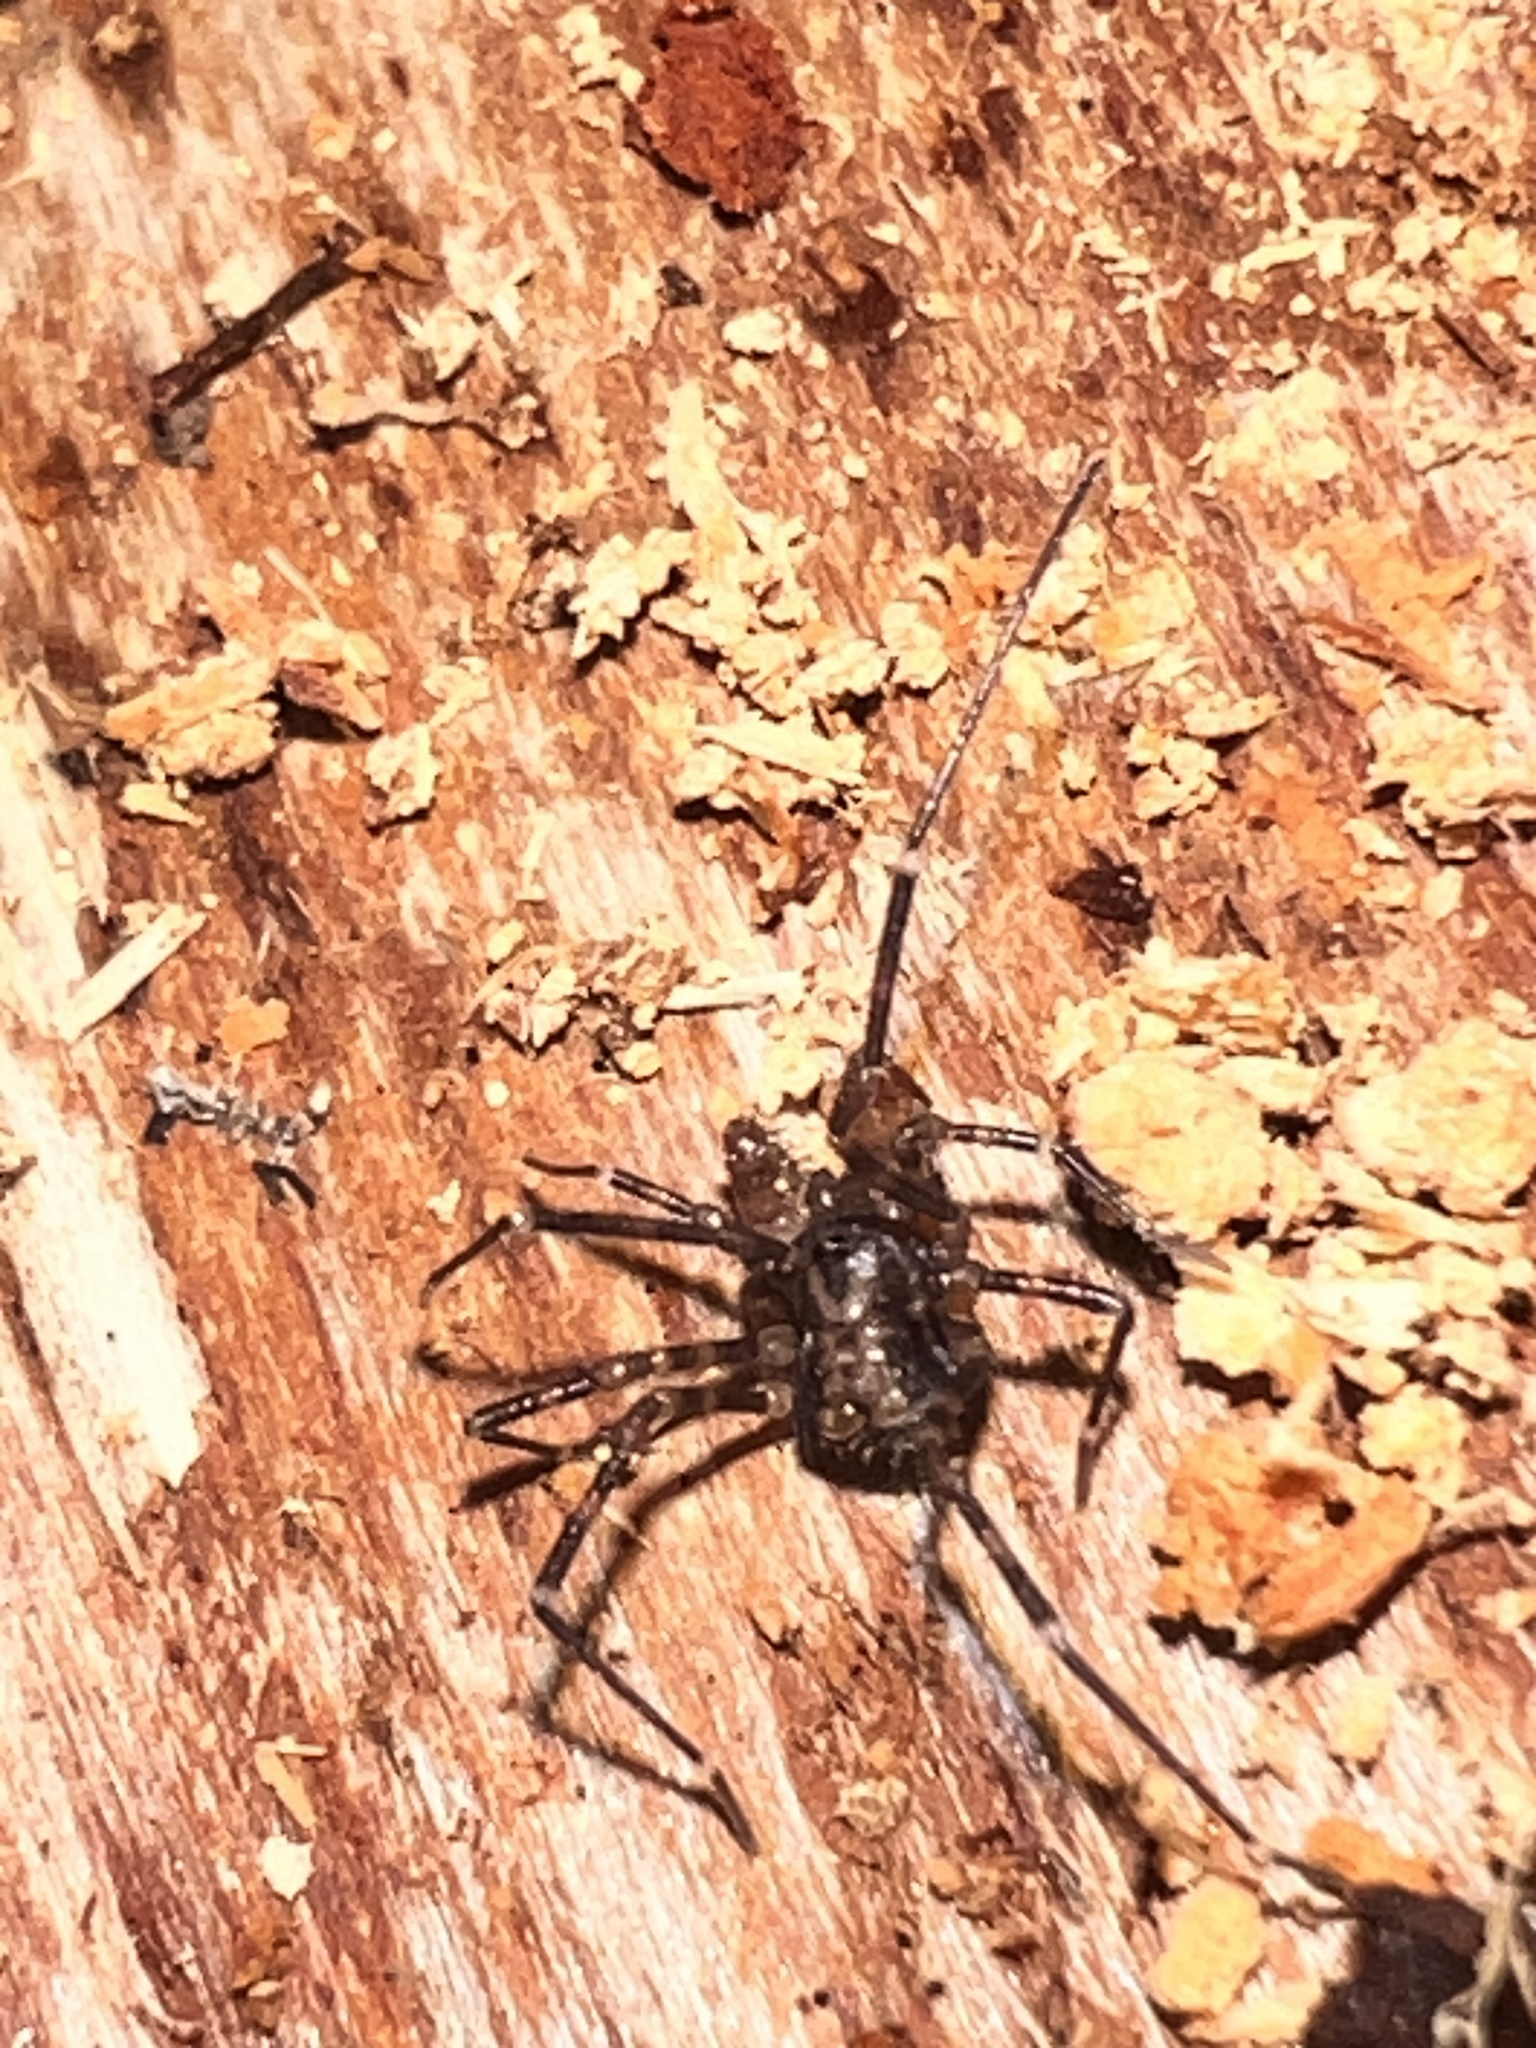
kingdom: Animalia
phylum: Arthropoda
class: Arachnida
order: Opiliones
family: Triaenonychidae
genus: Hendea
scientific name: Hendea myersi
